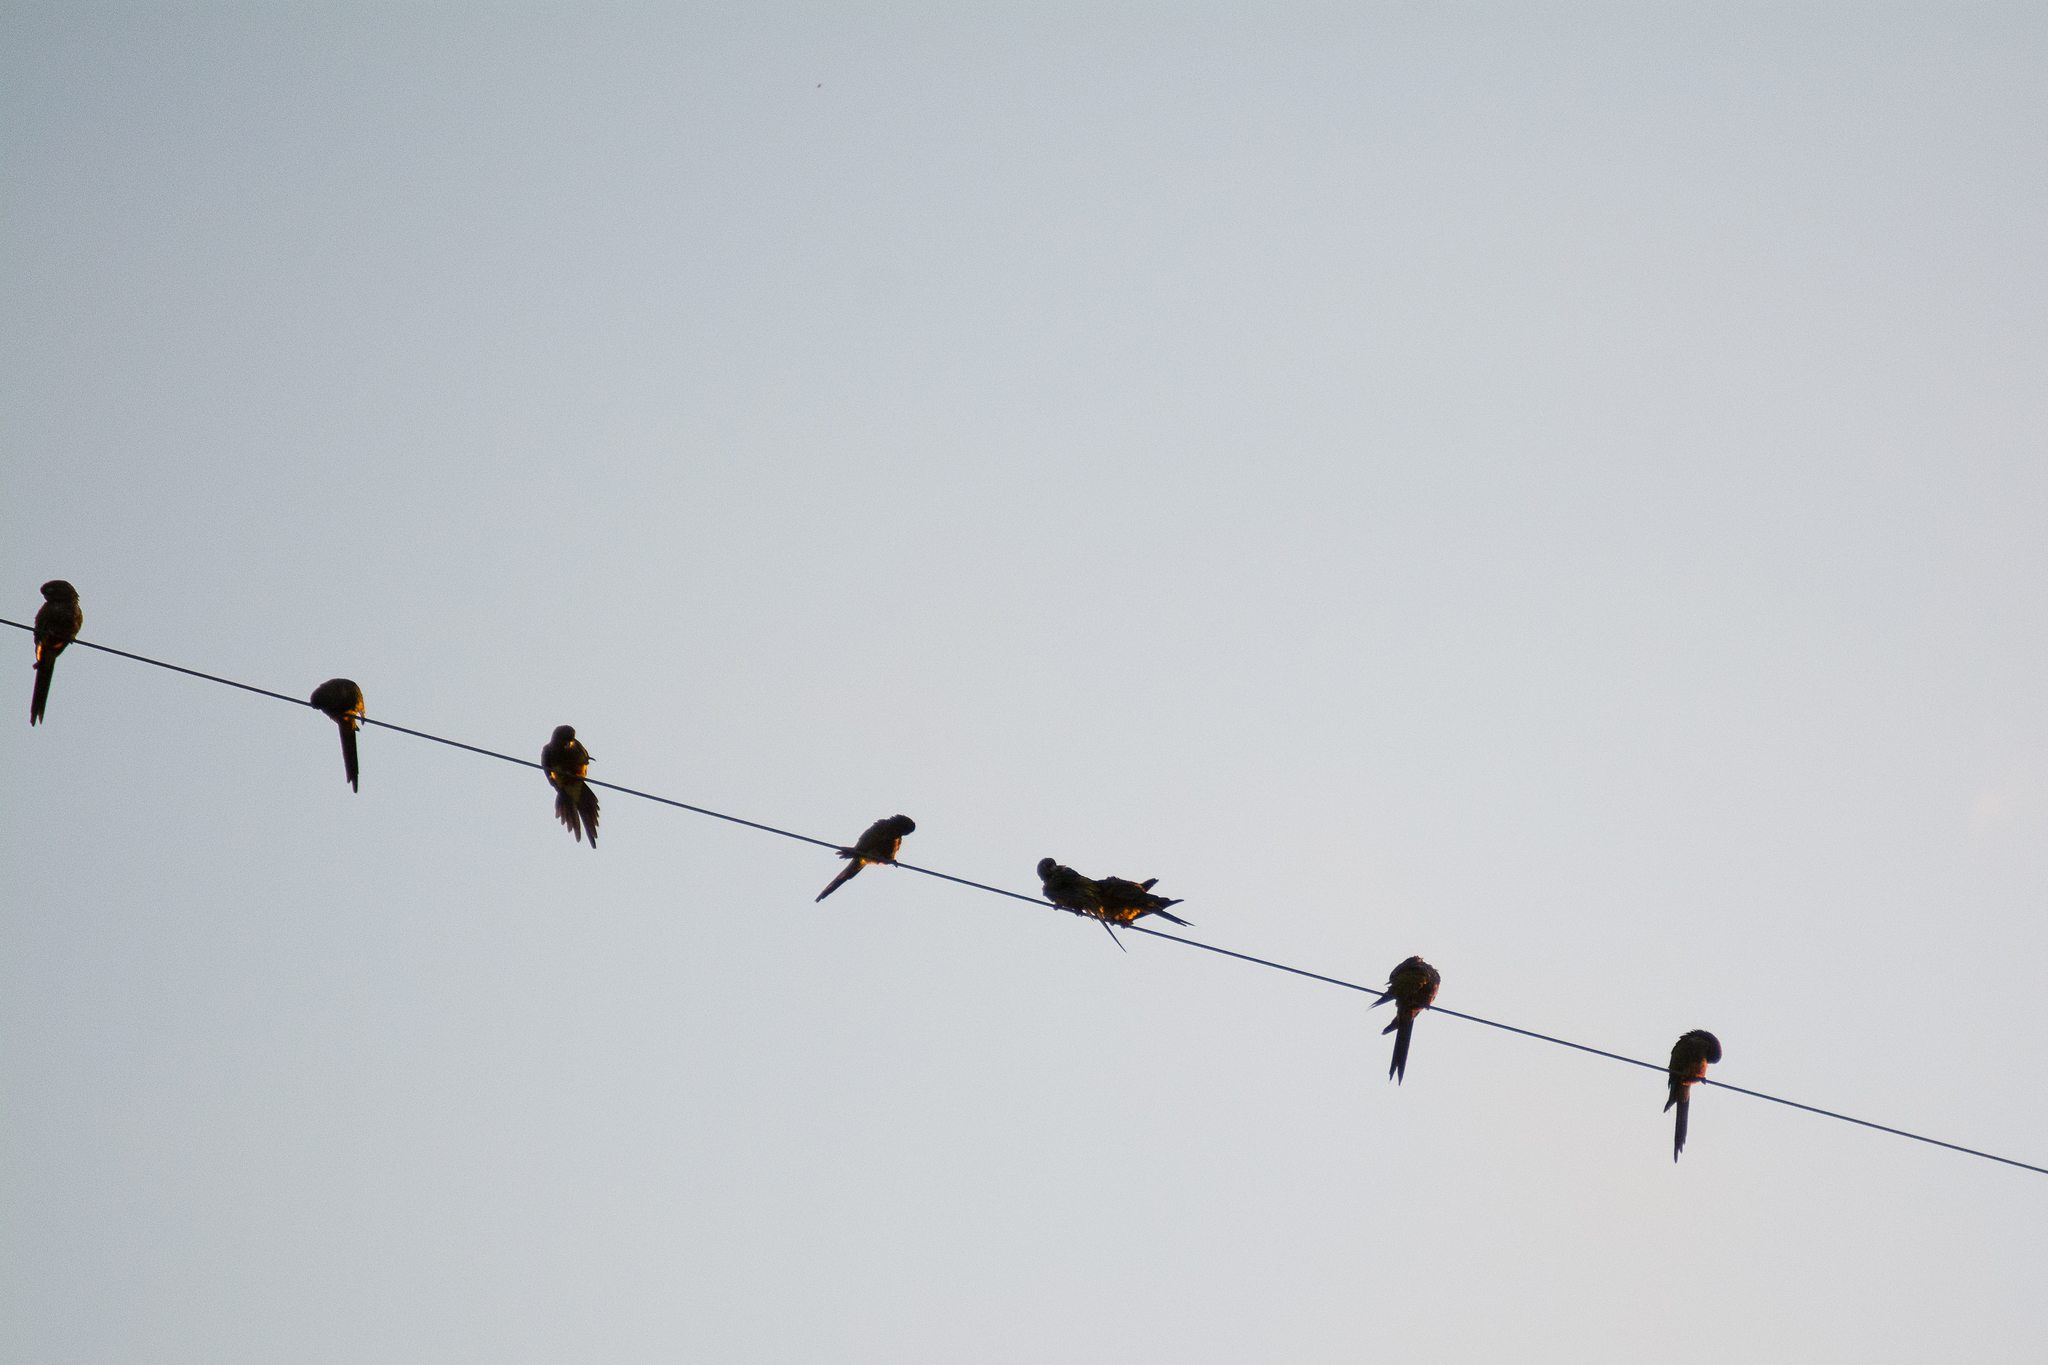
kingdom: Animalia
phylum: Chordata
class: Aves
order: Psittaciformes
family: Psittacidae
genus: Cyanoliseus
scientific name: Cyanoliseus patagonus
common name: Burrowing parrot
